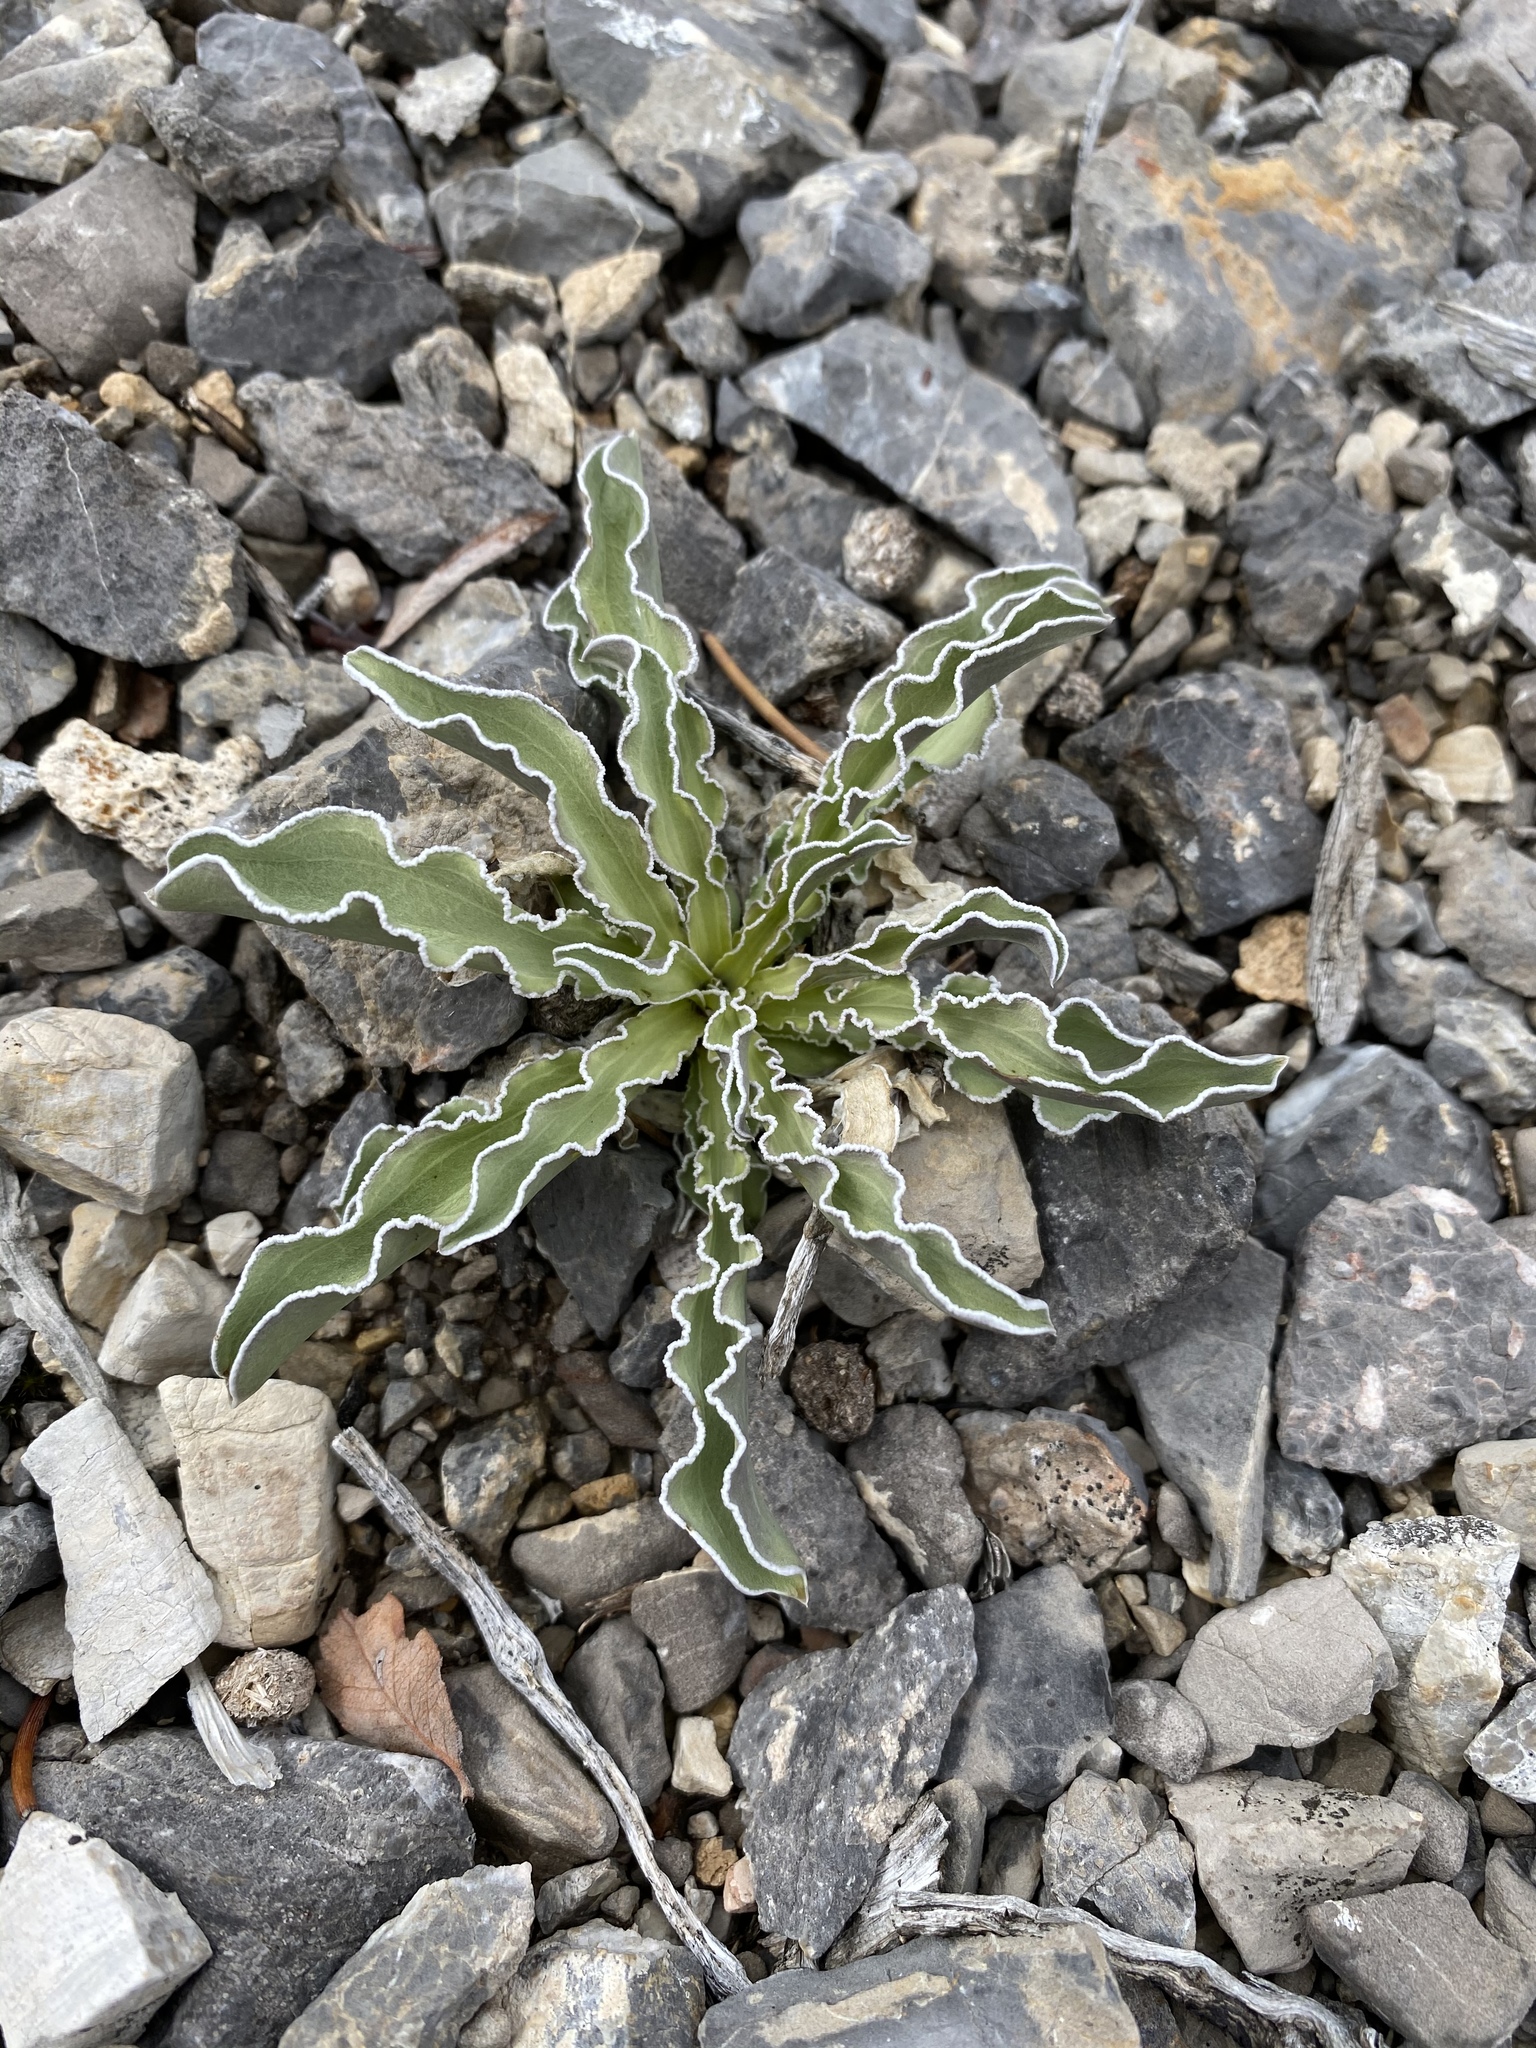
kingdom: Plantae
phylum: Tracheophyta
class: Magnoliopsida
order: Gentianales
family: Gentianaceae
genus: Frasera
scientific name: Frasera albomarginata
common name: Desert frasera
